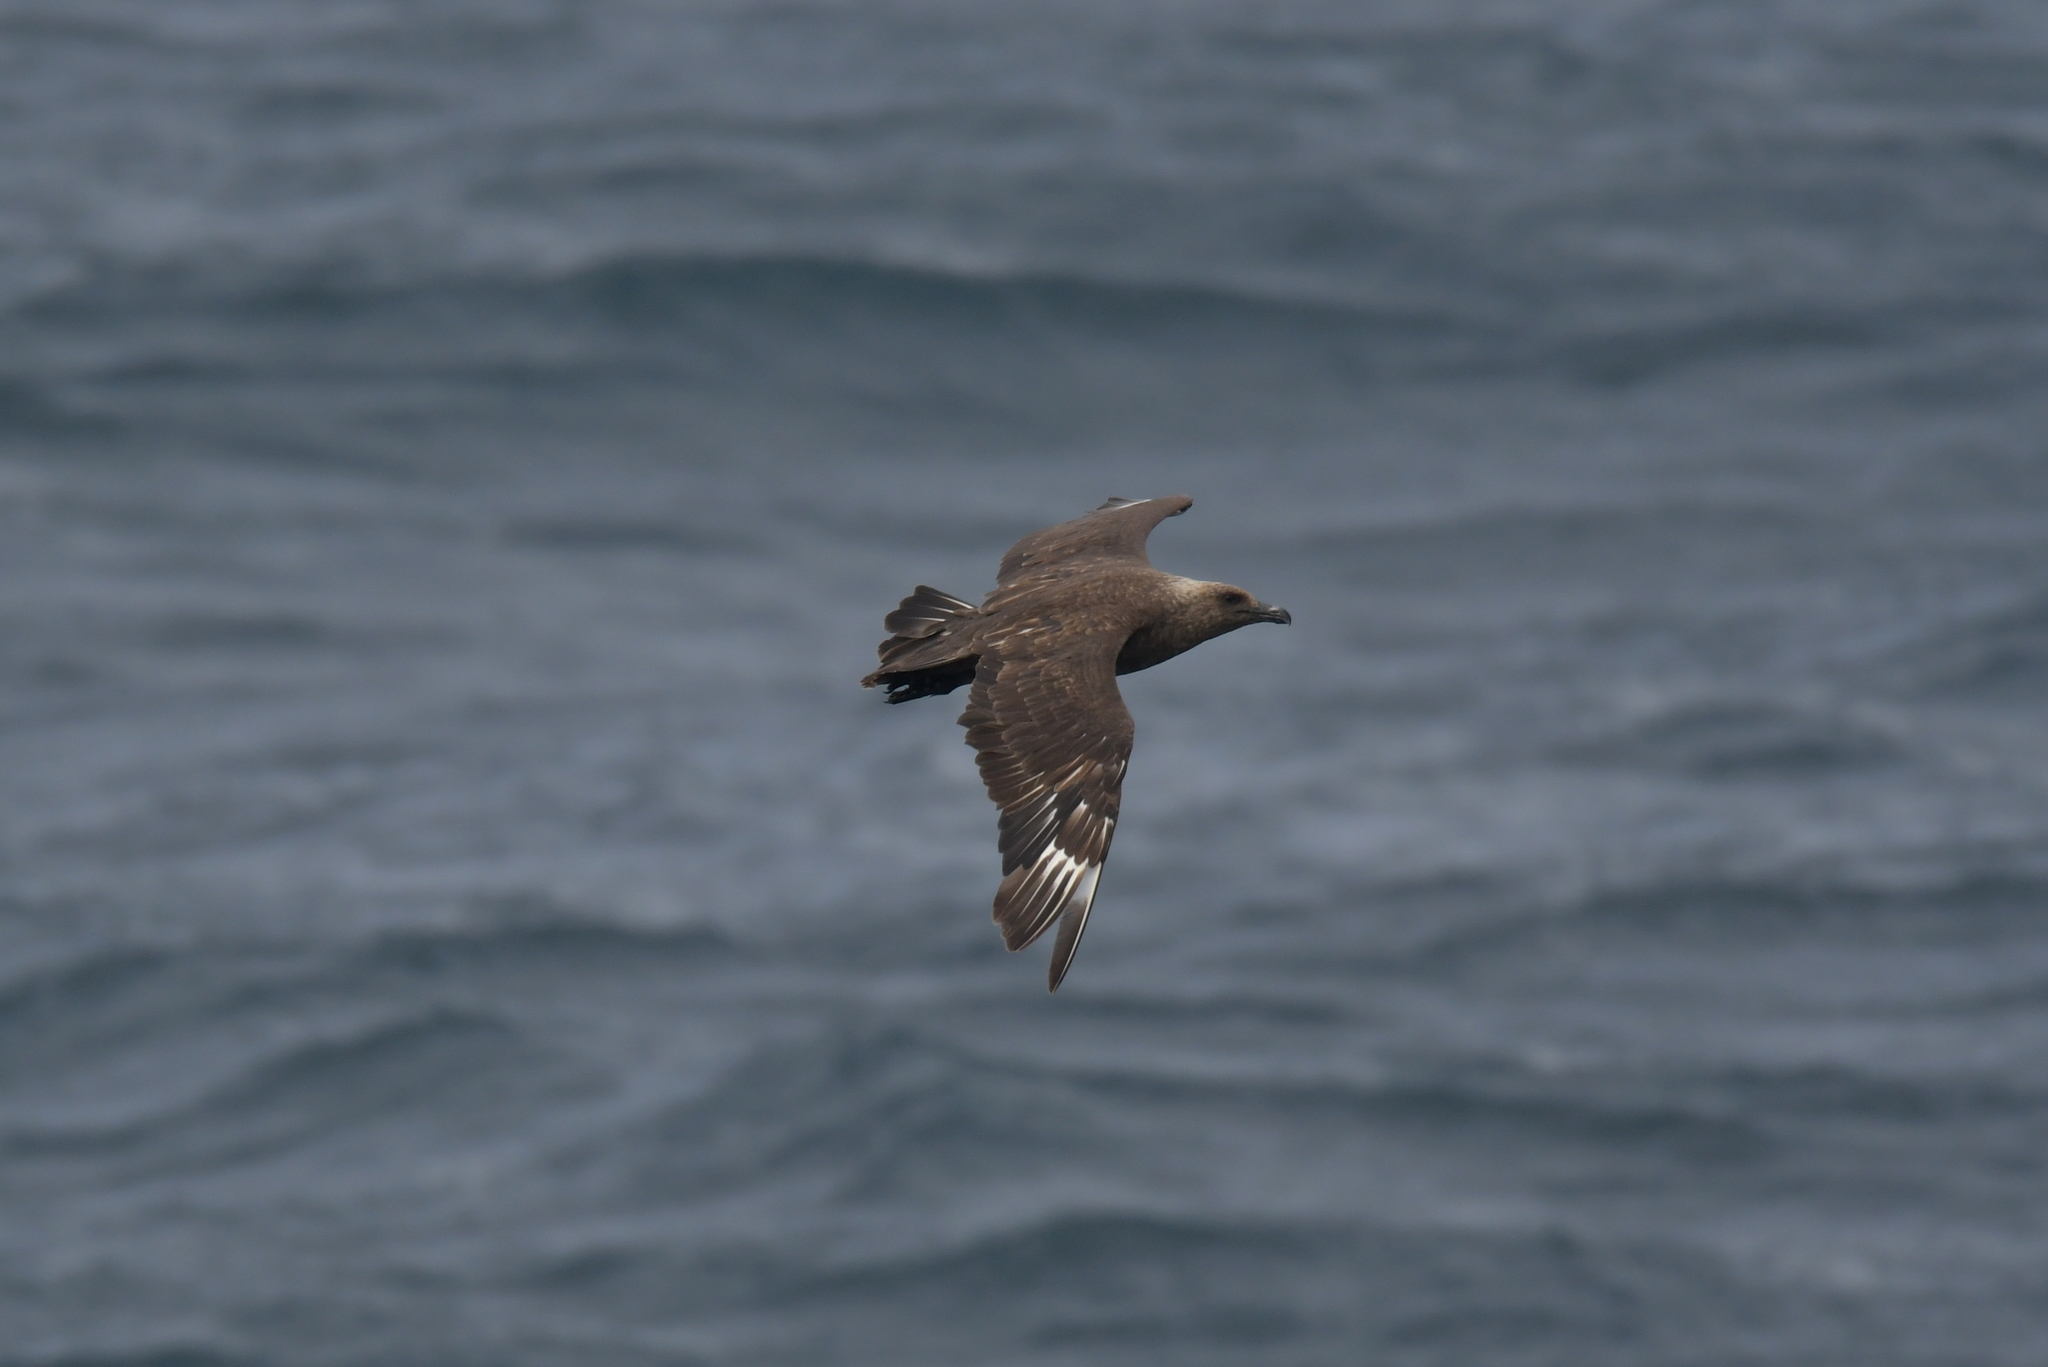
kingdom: Animalia
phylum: Chordata
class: Aves
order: Charadriiformes
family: Stercorariidae
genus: Stercorarius
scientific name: Stercorarius antarcticus
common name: Brown skua
